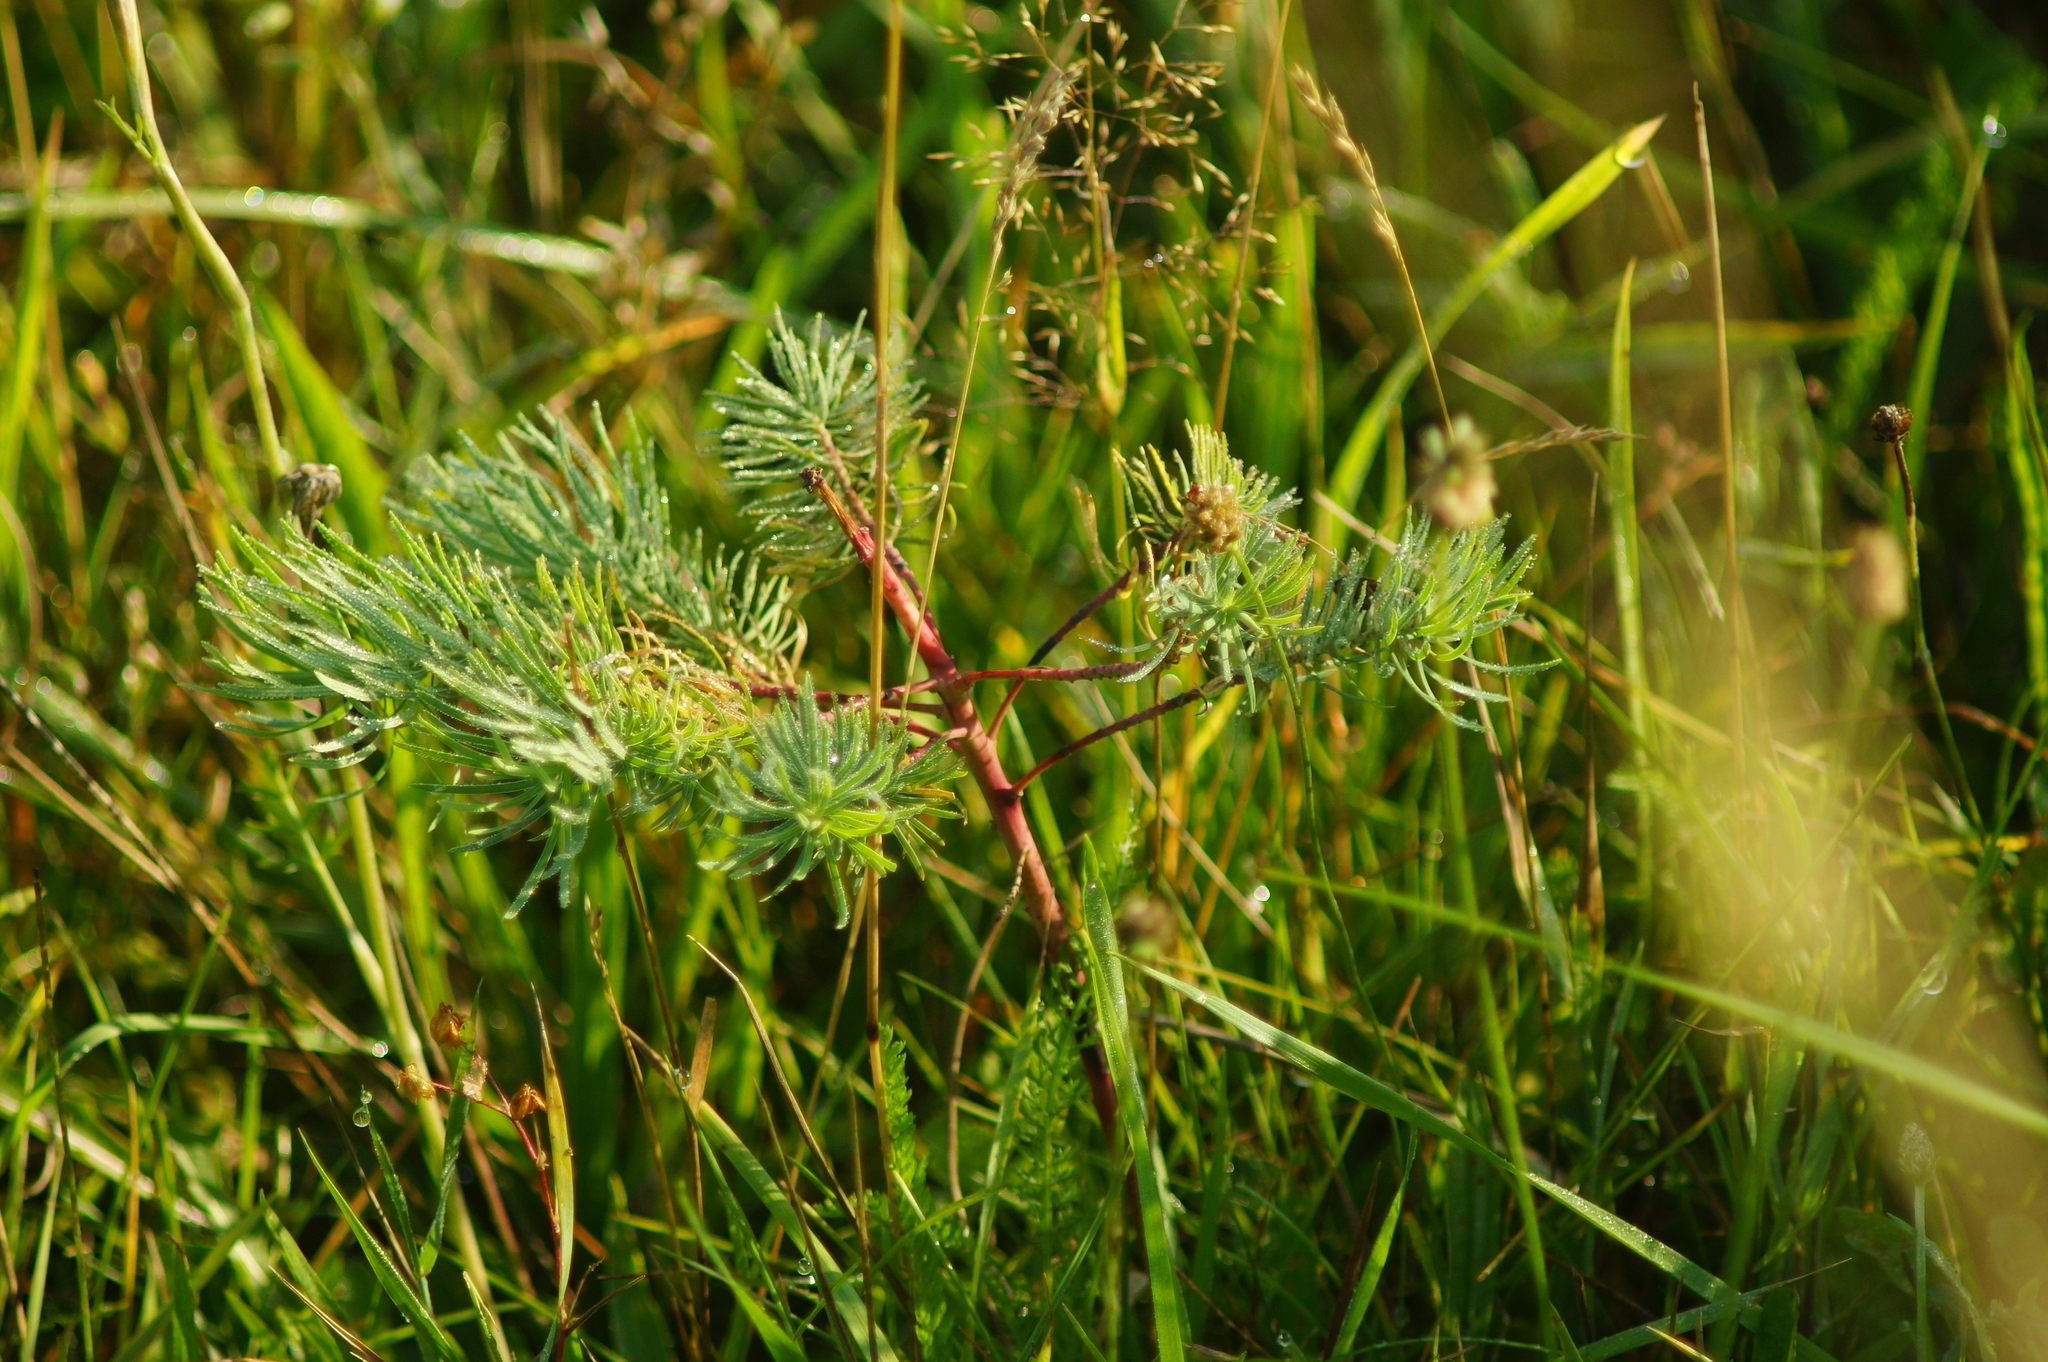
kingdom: Plantae
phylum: Tracheophyta
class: Magnoliopsida
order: Malpighiales
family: Euphorbiaceae
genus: Euphorbia
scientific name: Euphorbia cyparissias
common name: Cypress spurge
